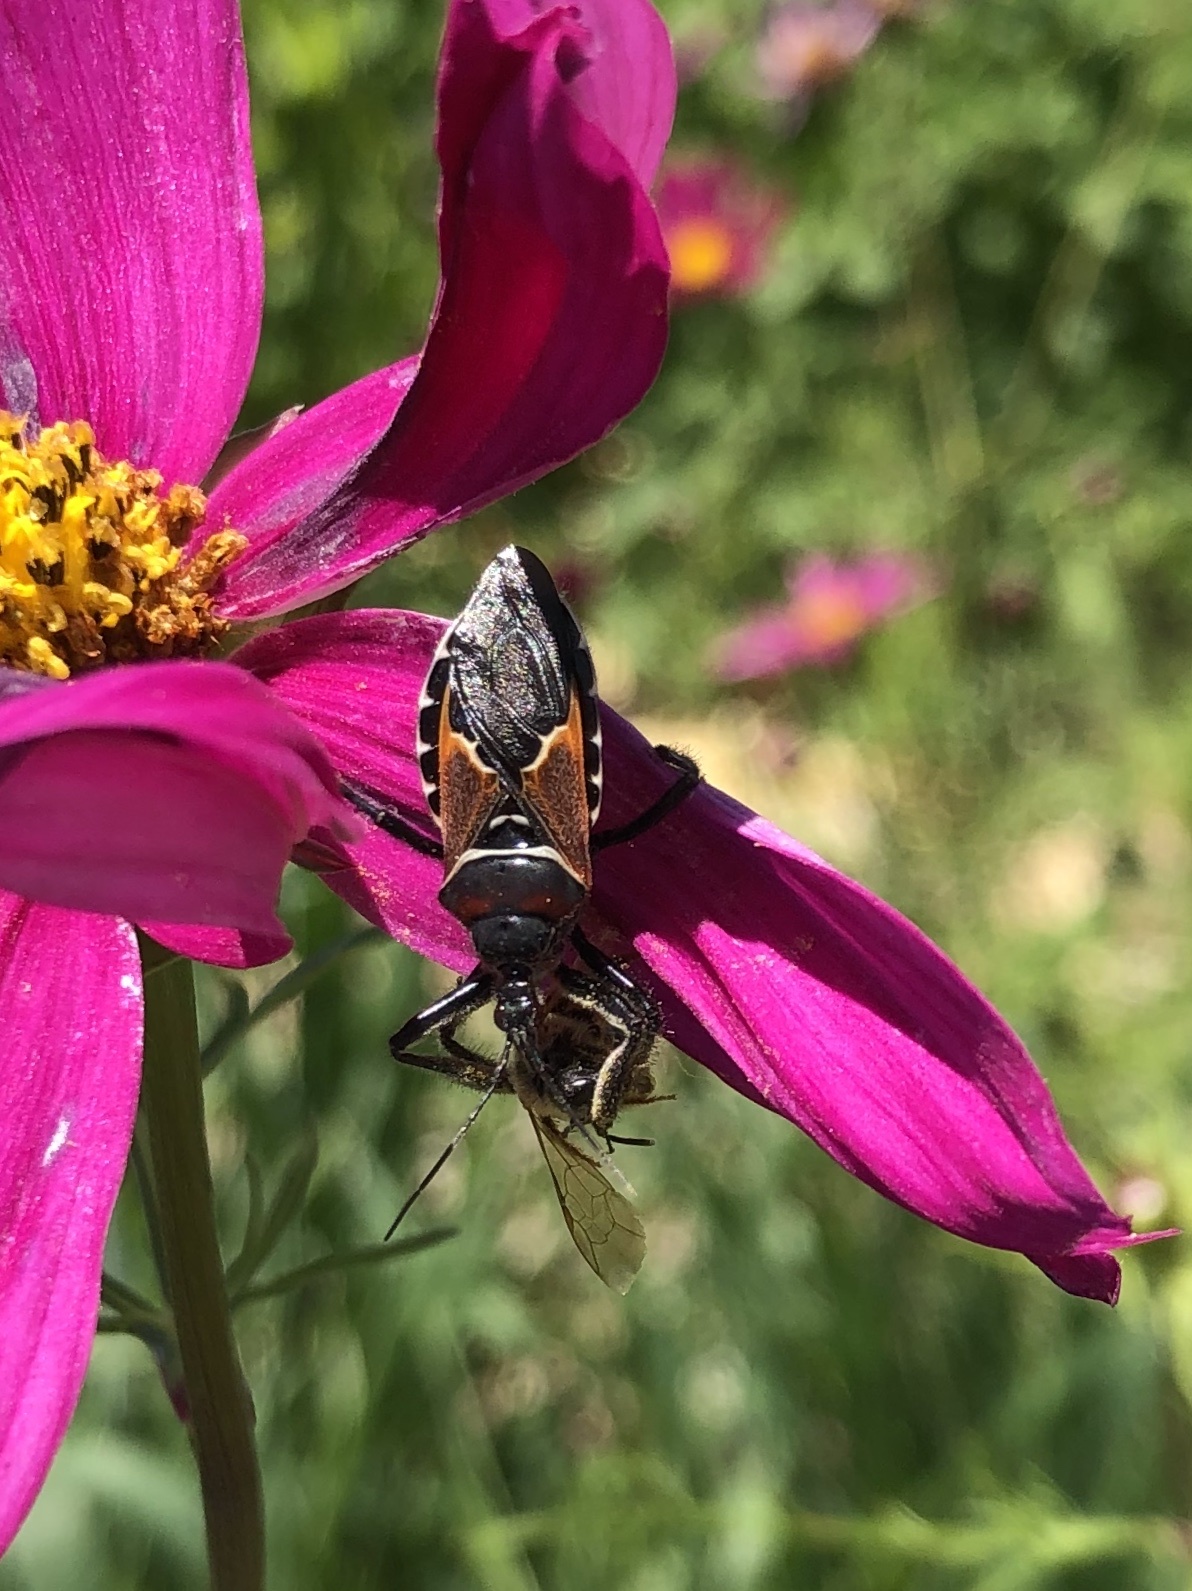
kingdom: Animalia
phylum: Arthropoda
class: Insecta
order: Hemiptera
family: Reduviidae
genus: Apiomerus
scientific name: Apiomerus montanus
